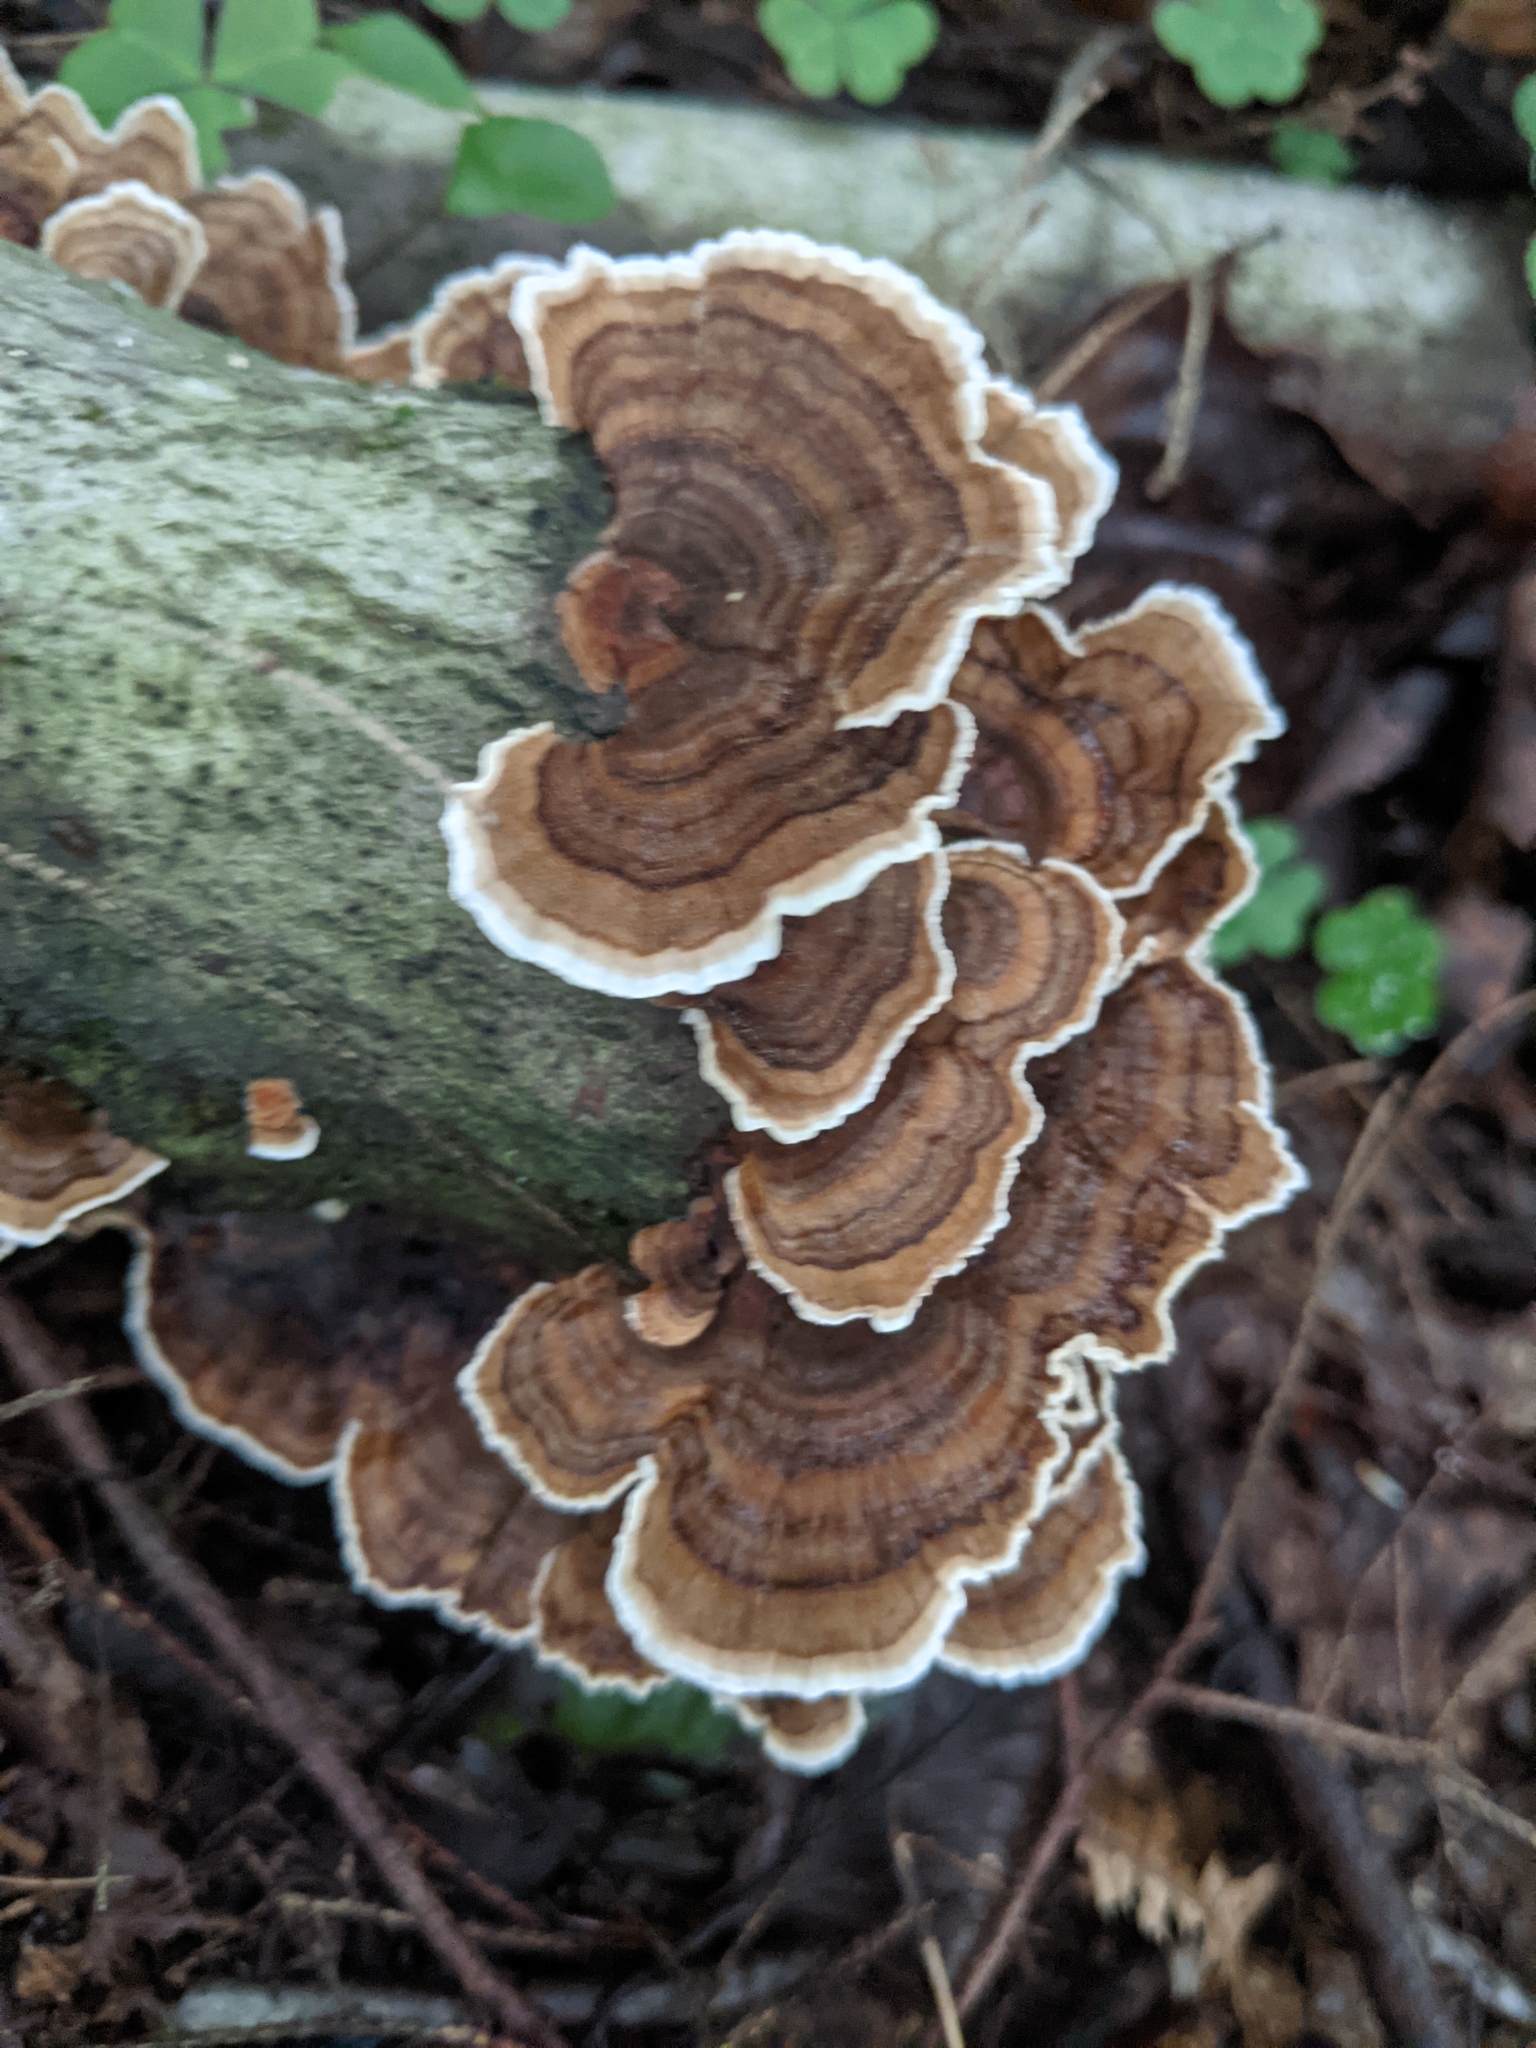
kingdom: Fungi
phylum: Basidiomycota
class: Agaricomycetes
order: Polyporales
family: Polyporaceae
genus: Trametes
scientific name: Trametes versicolor
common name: Turkeytail
